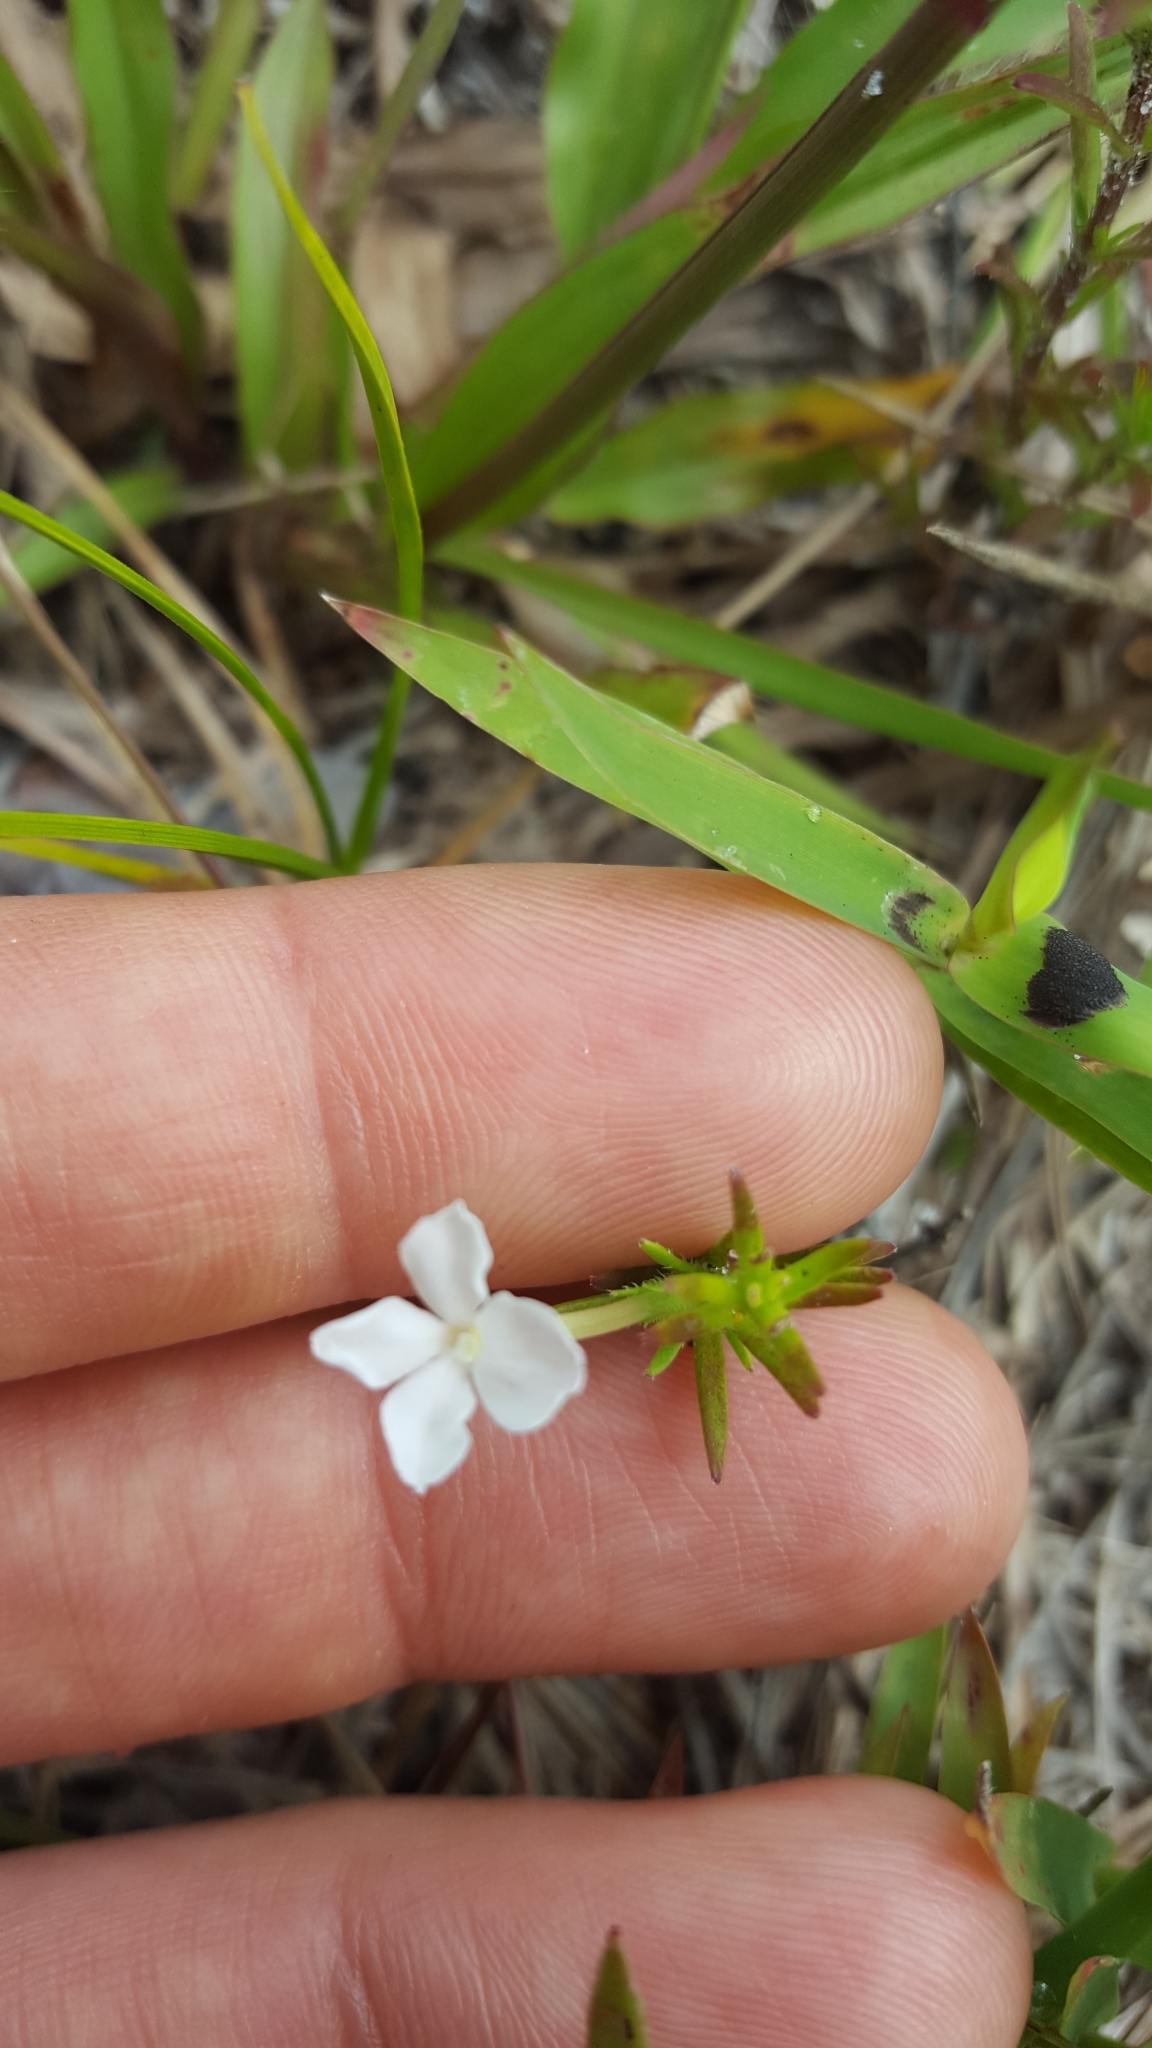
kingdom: Plantae
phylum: Tracheophyta
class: Magnoliopsida
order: Lamiales
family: Plantaginaceae
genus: Gratiola
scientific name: Gratiola hispida
